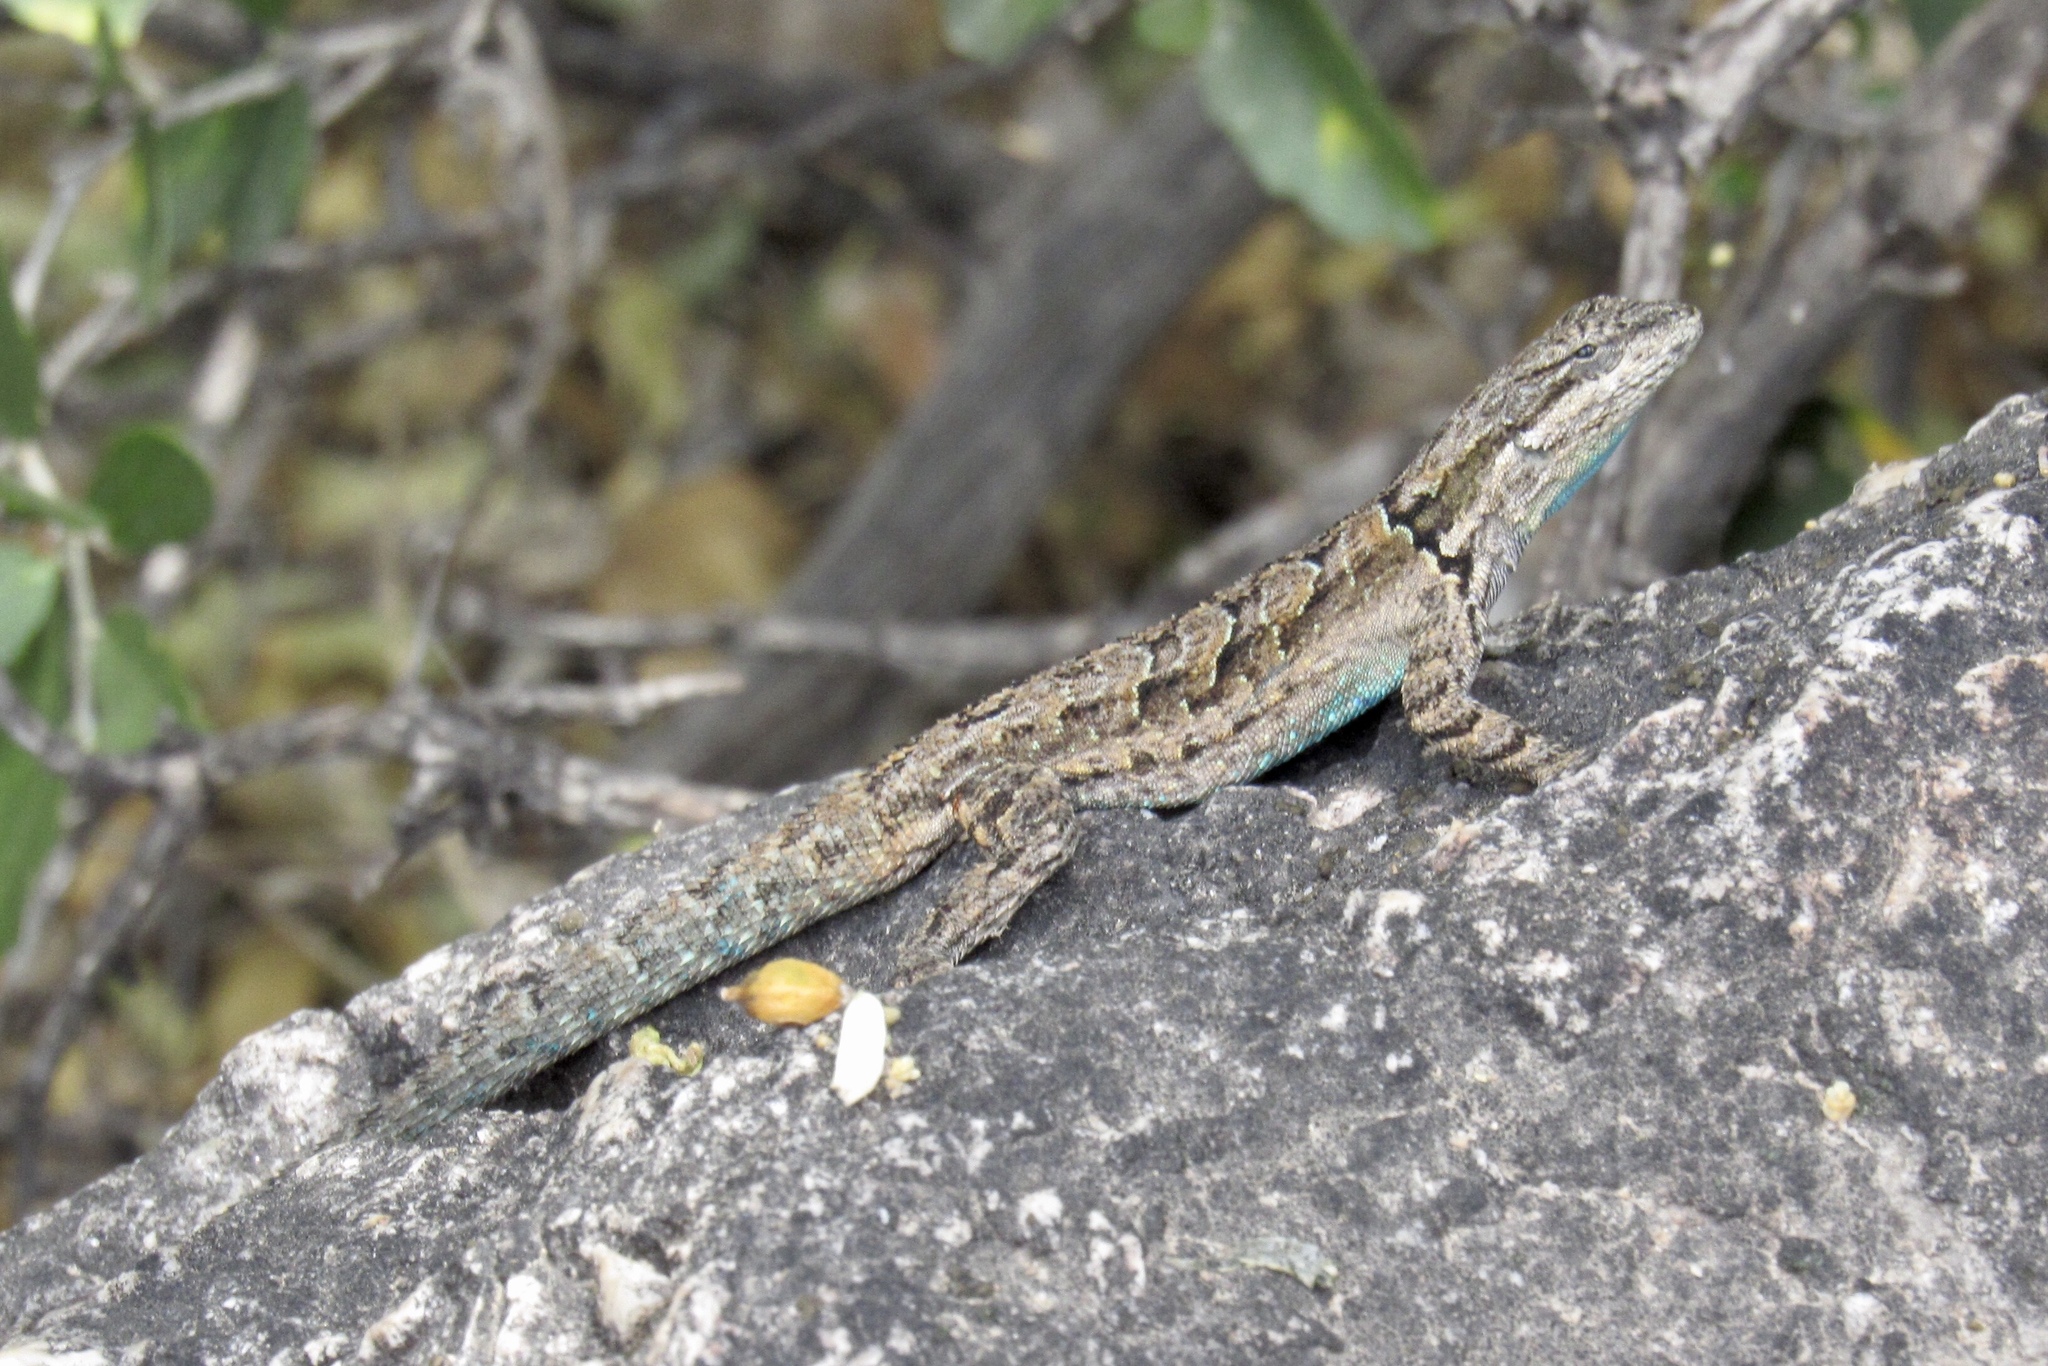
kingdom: Animalia
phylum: Chordata
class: Squamata
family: Phrynosomatidae
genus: Urosaurus
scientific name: Urosaurus ornatus
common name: Ornate tree lizard
